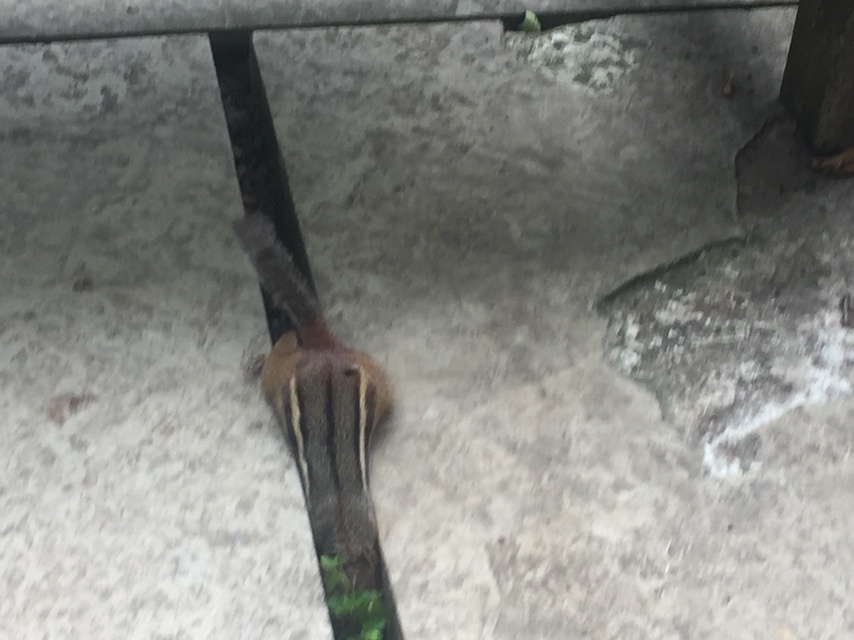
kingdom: Animalia
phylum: Chordata
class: Mammalia
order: Rodentia
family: Sciuridae
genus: Tamias
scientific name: Tamias striatus
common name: Eastern chipmunk
